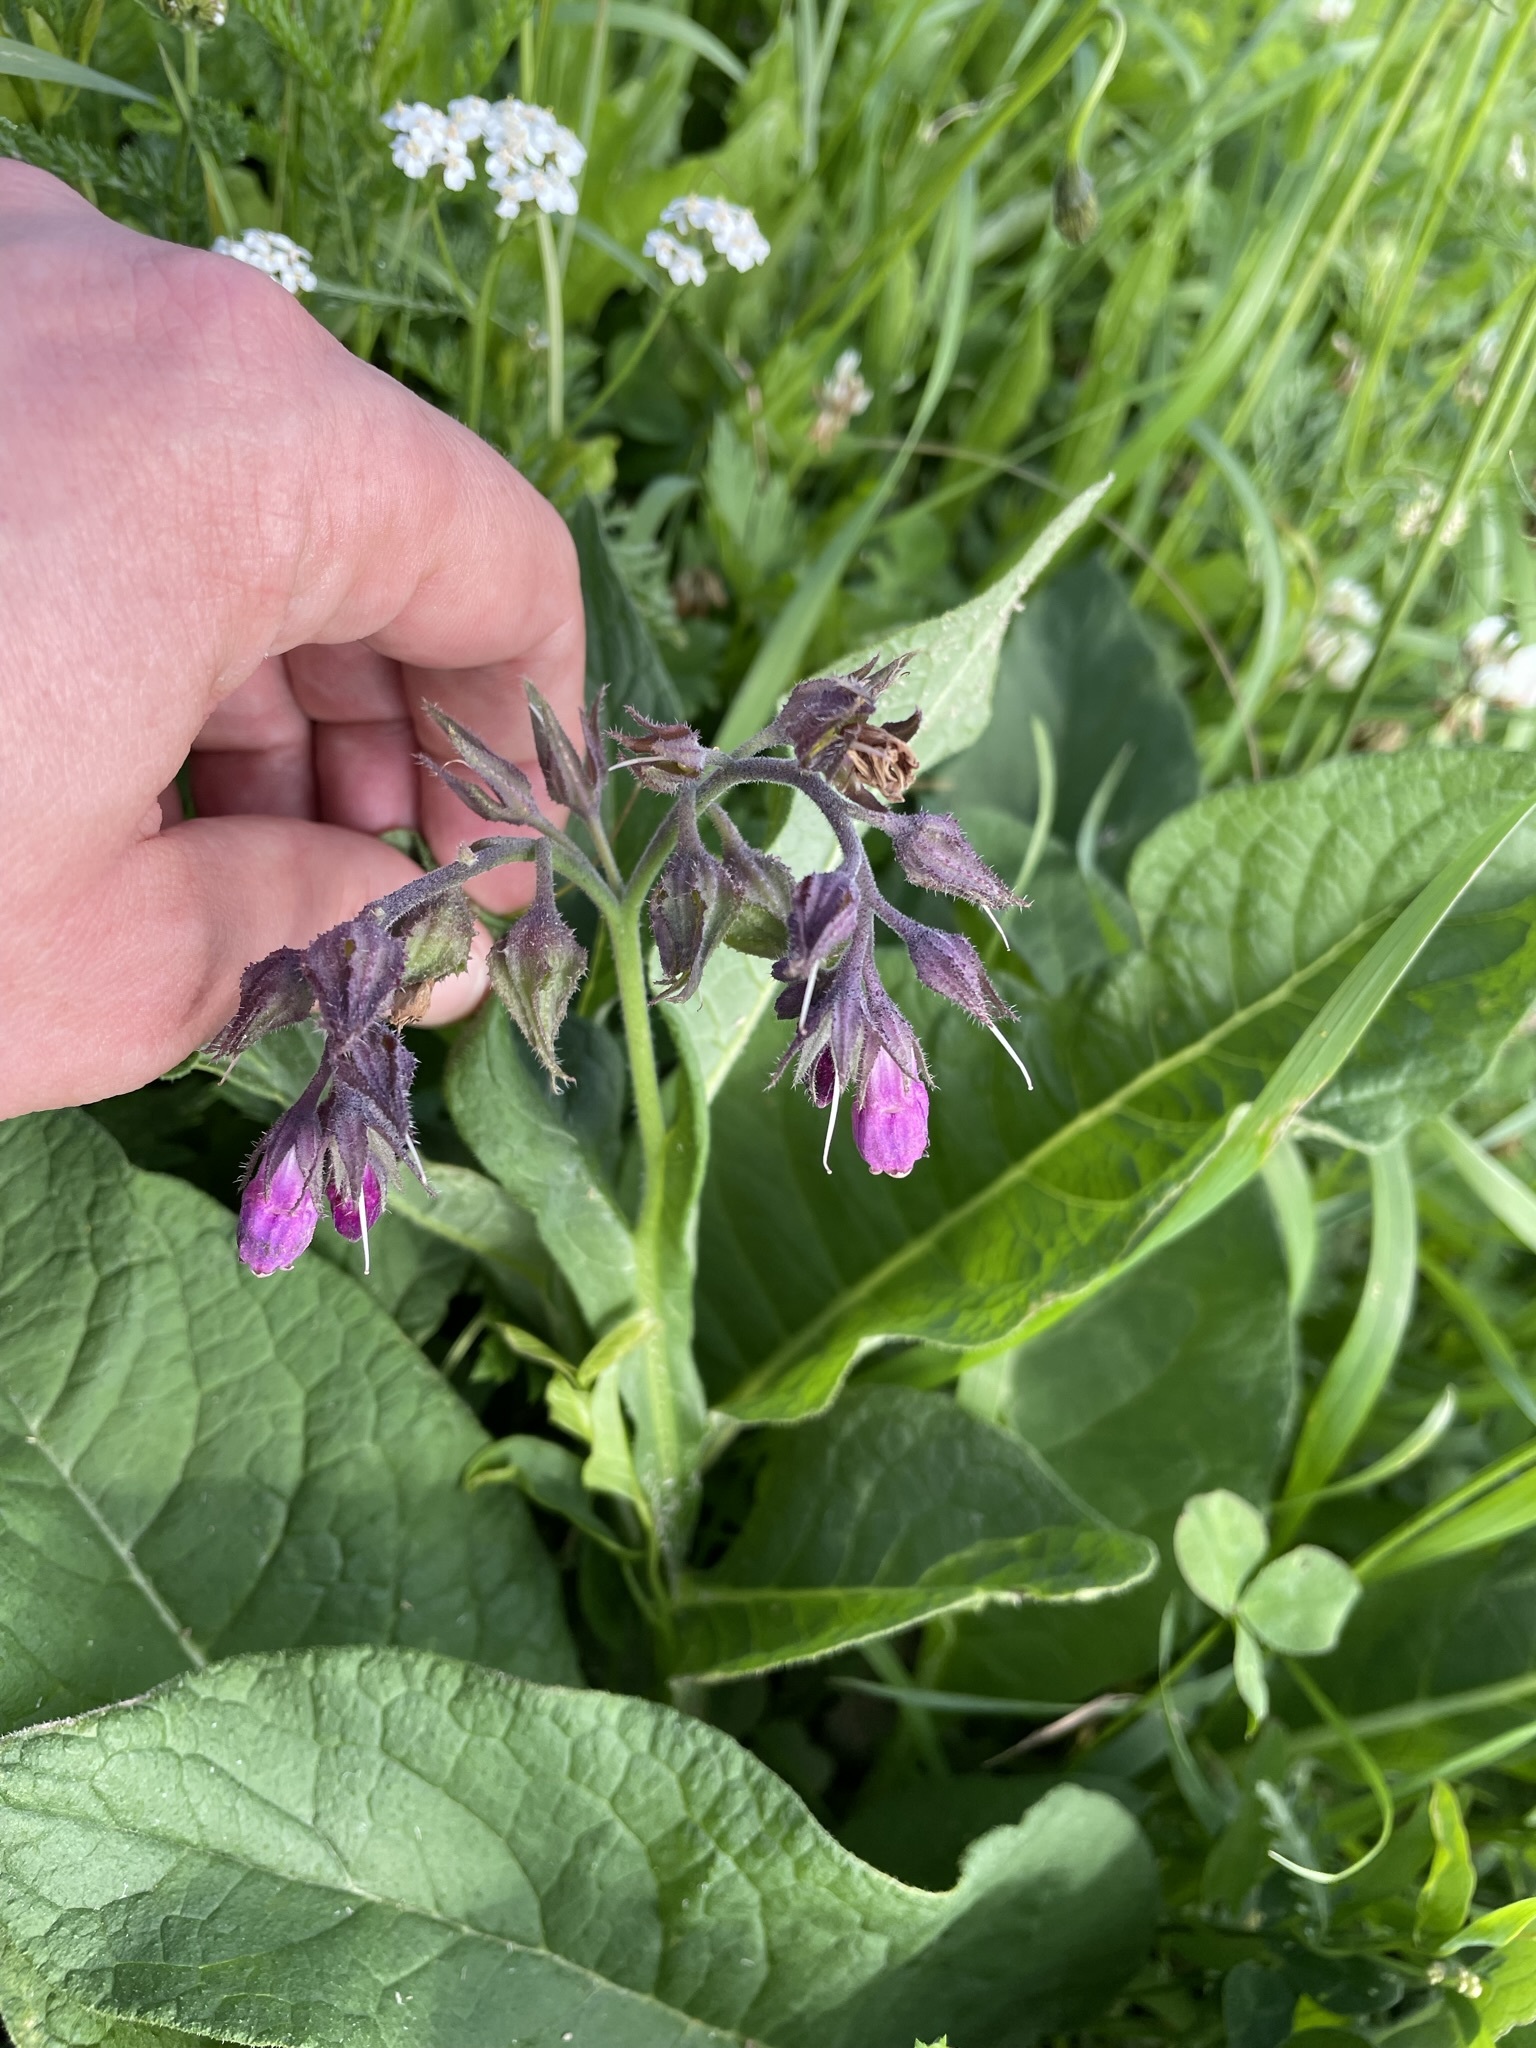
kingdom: Plantae
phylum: Tracheophyta
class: Magnoliopsida
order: Boraginales
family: Boraginaceae
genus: Symphytum
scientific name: Symphytum officinale
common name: Common comfrey
